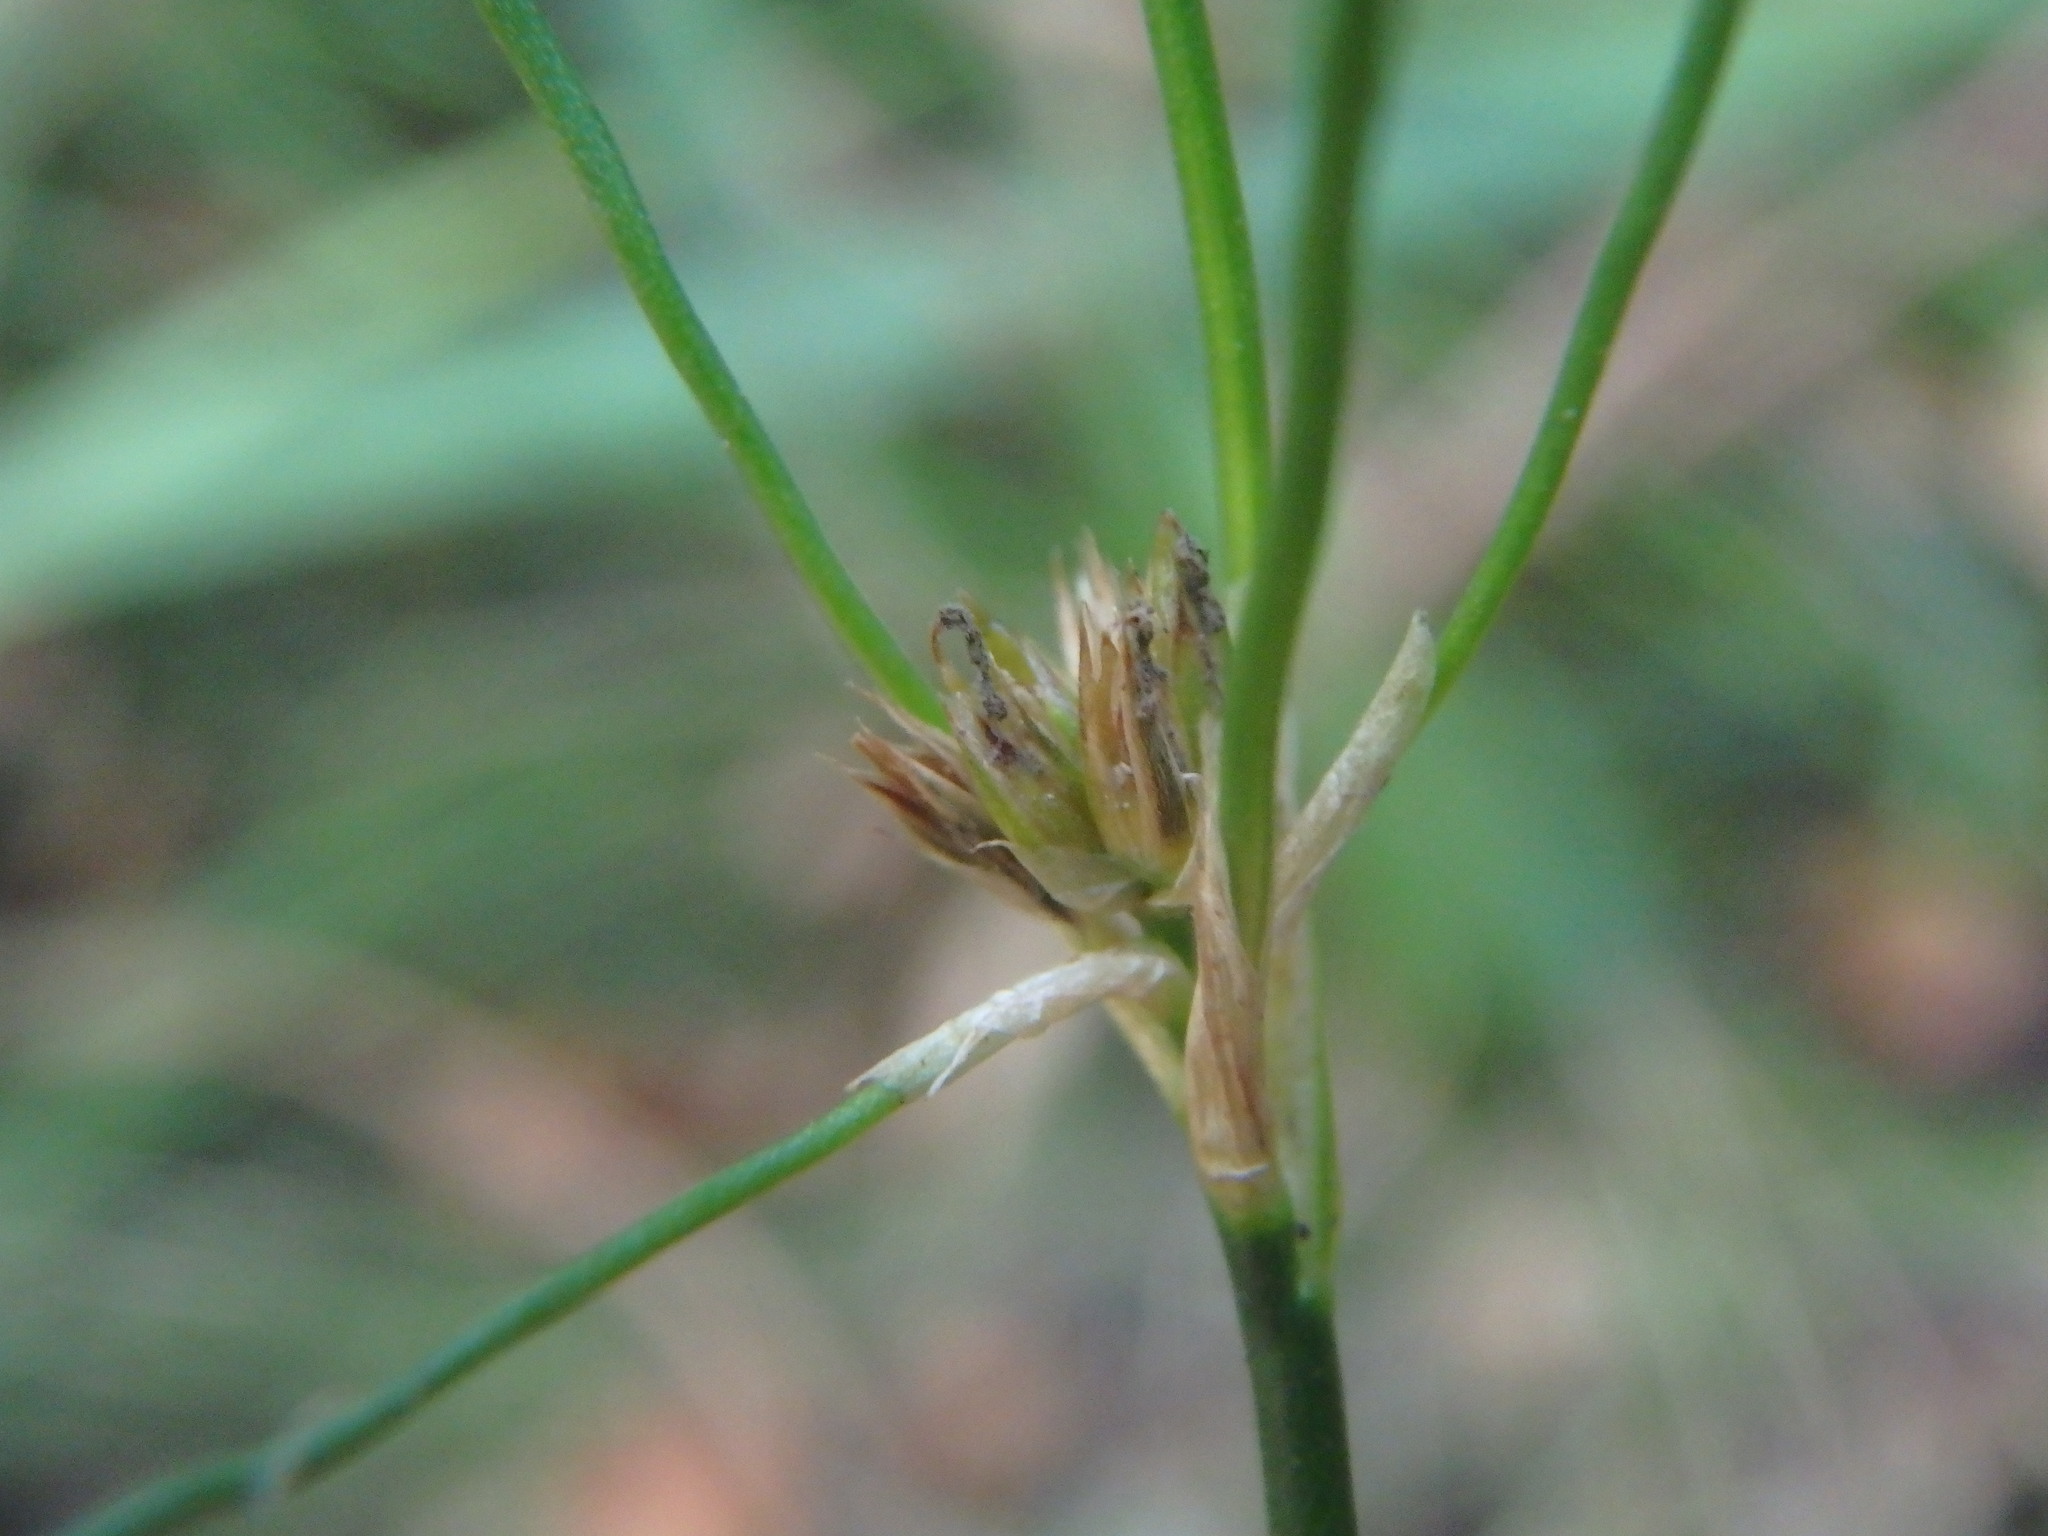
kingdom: Plantae
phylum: Tracheophyta
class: Liliopsida
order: Poales
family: Juncaceae
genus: Juncus
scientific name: Juncus acutiflorus
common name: Sharp-flowered rush
